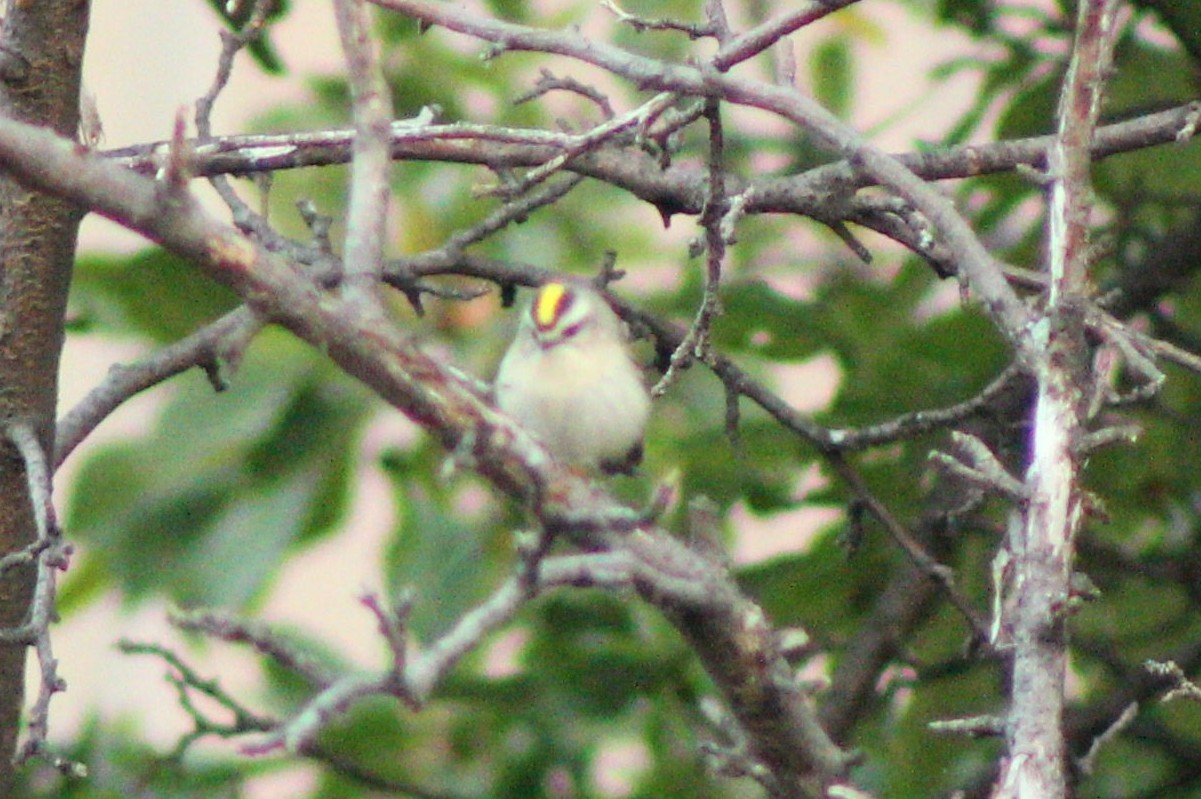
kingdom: Animalia
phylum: Chordata
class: Aves
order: Passeriformes
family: Regulidae
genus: Regulus
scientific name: Regulus satrapa
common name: Golden-crowned kinglet
